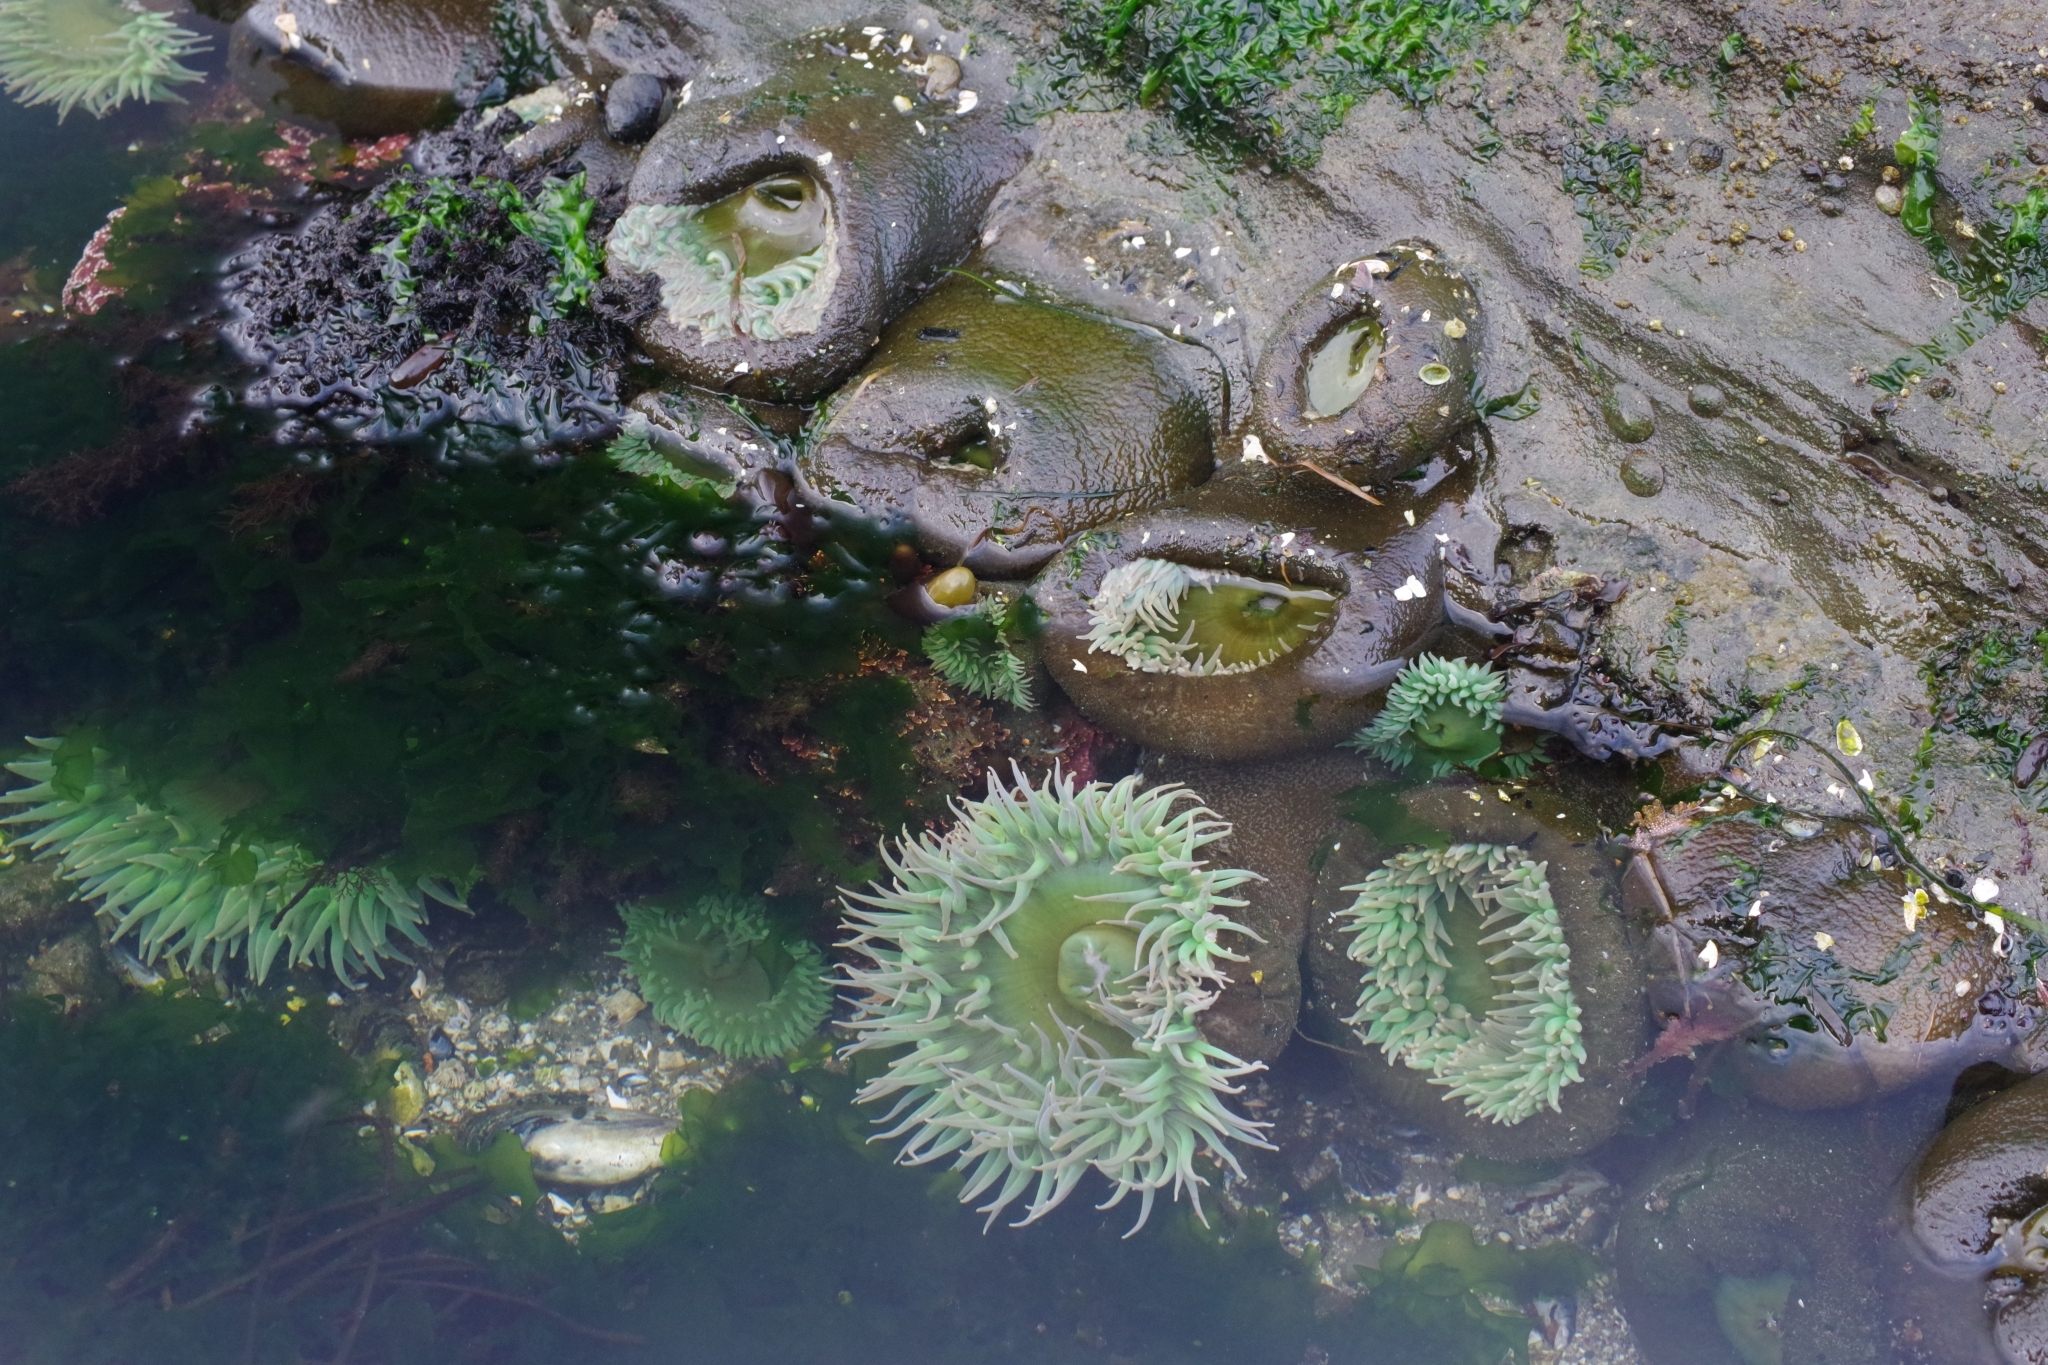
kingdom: Animalia
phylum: Cnidaria
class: Anthozoa
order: Actiniaria
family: Actiniidae
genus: Anthopleura
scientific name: Anthopleura xanthogrammica
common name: Giant green anemone
